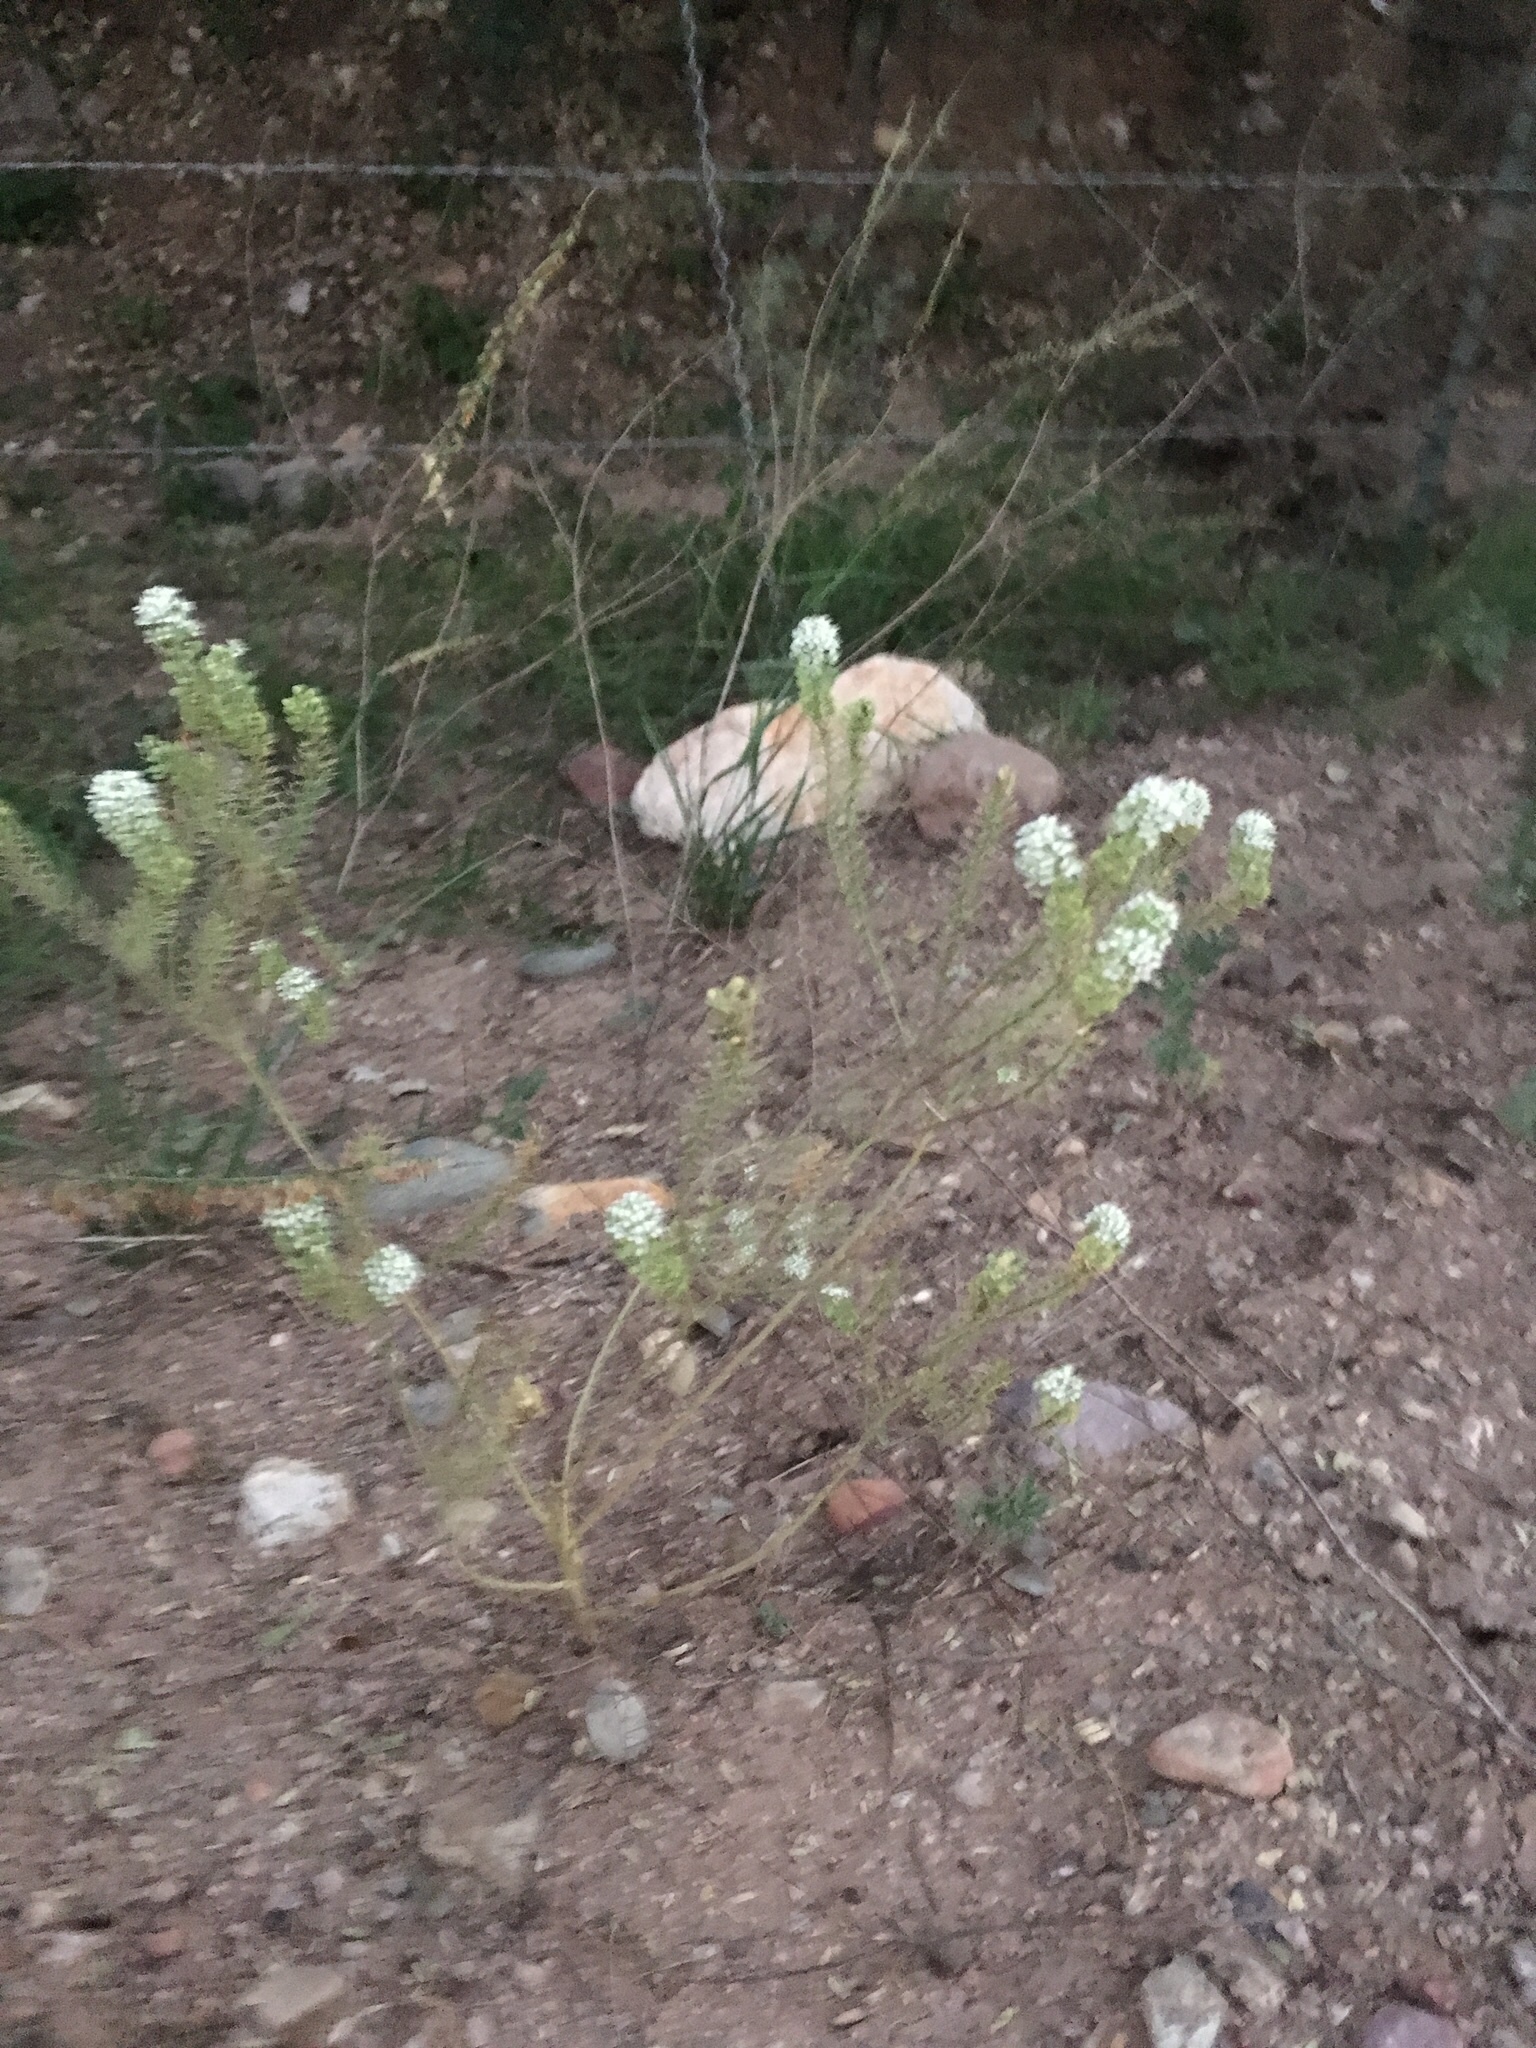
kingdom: Plantae
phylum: Tracheophyta
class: Magnoliopsida
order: Brassicales
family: Brassicaceae
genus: Lepidium
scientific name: Lepidium thurberi
